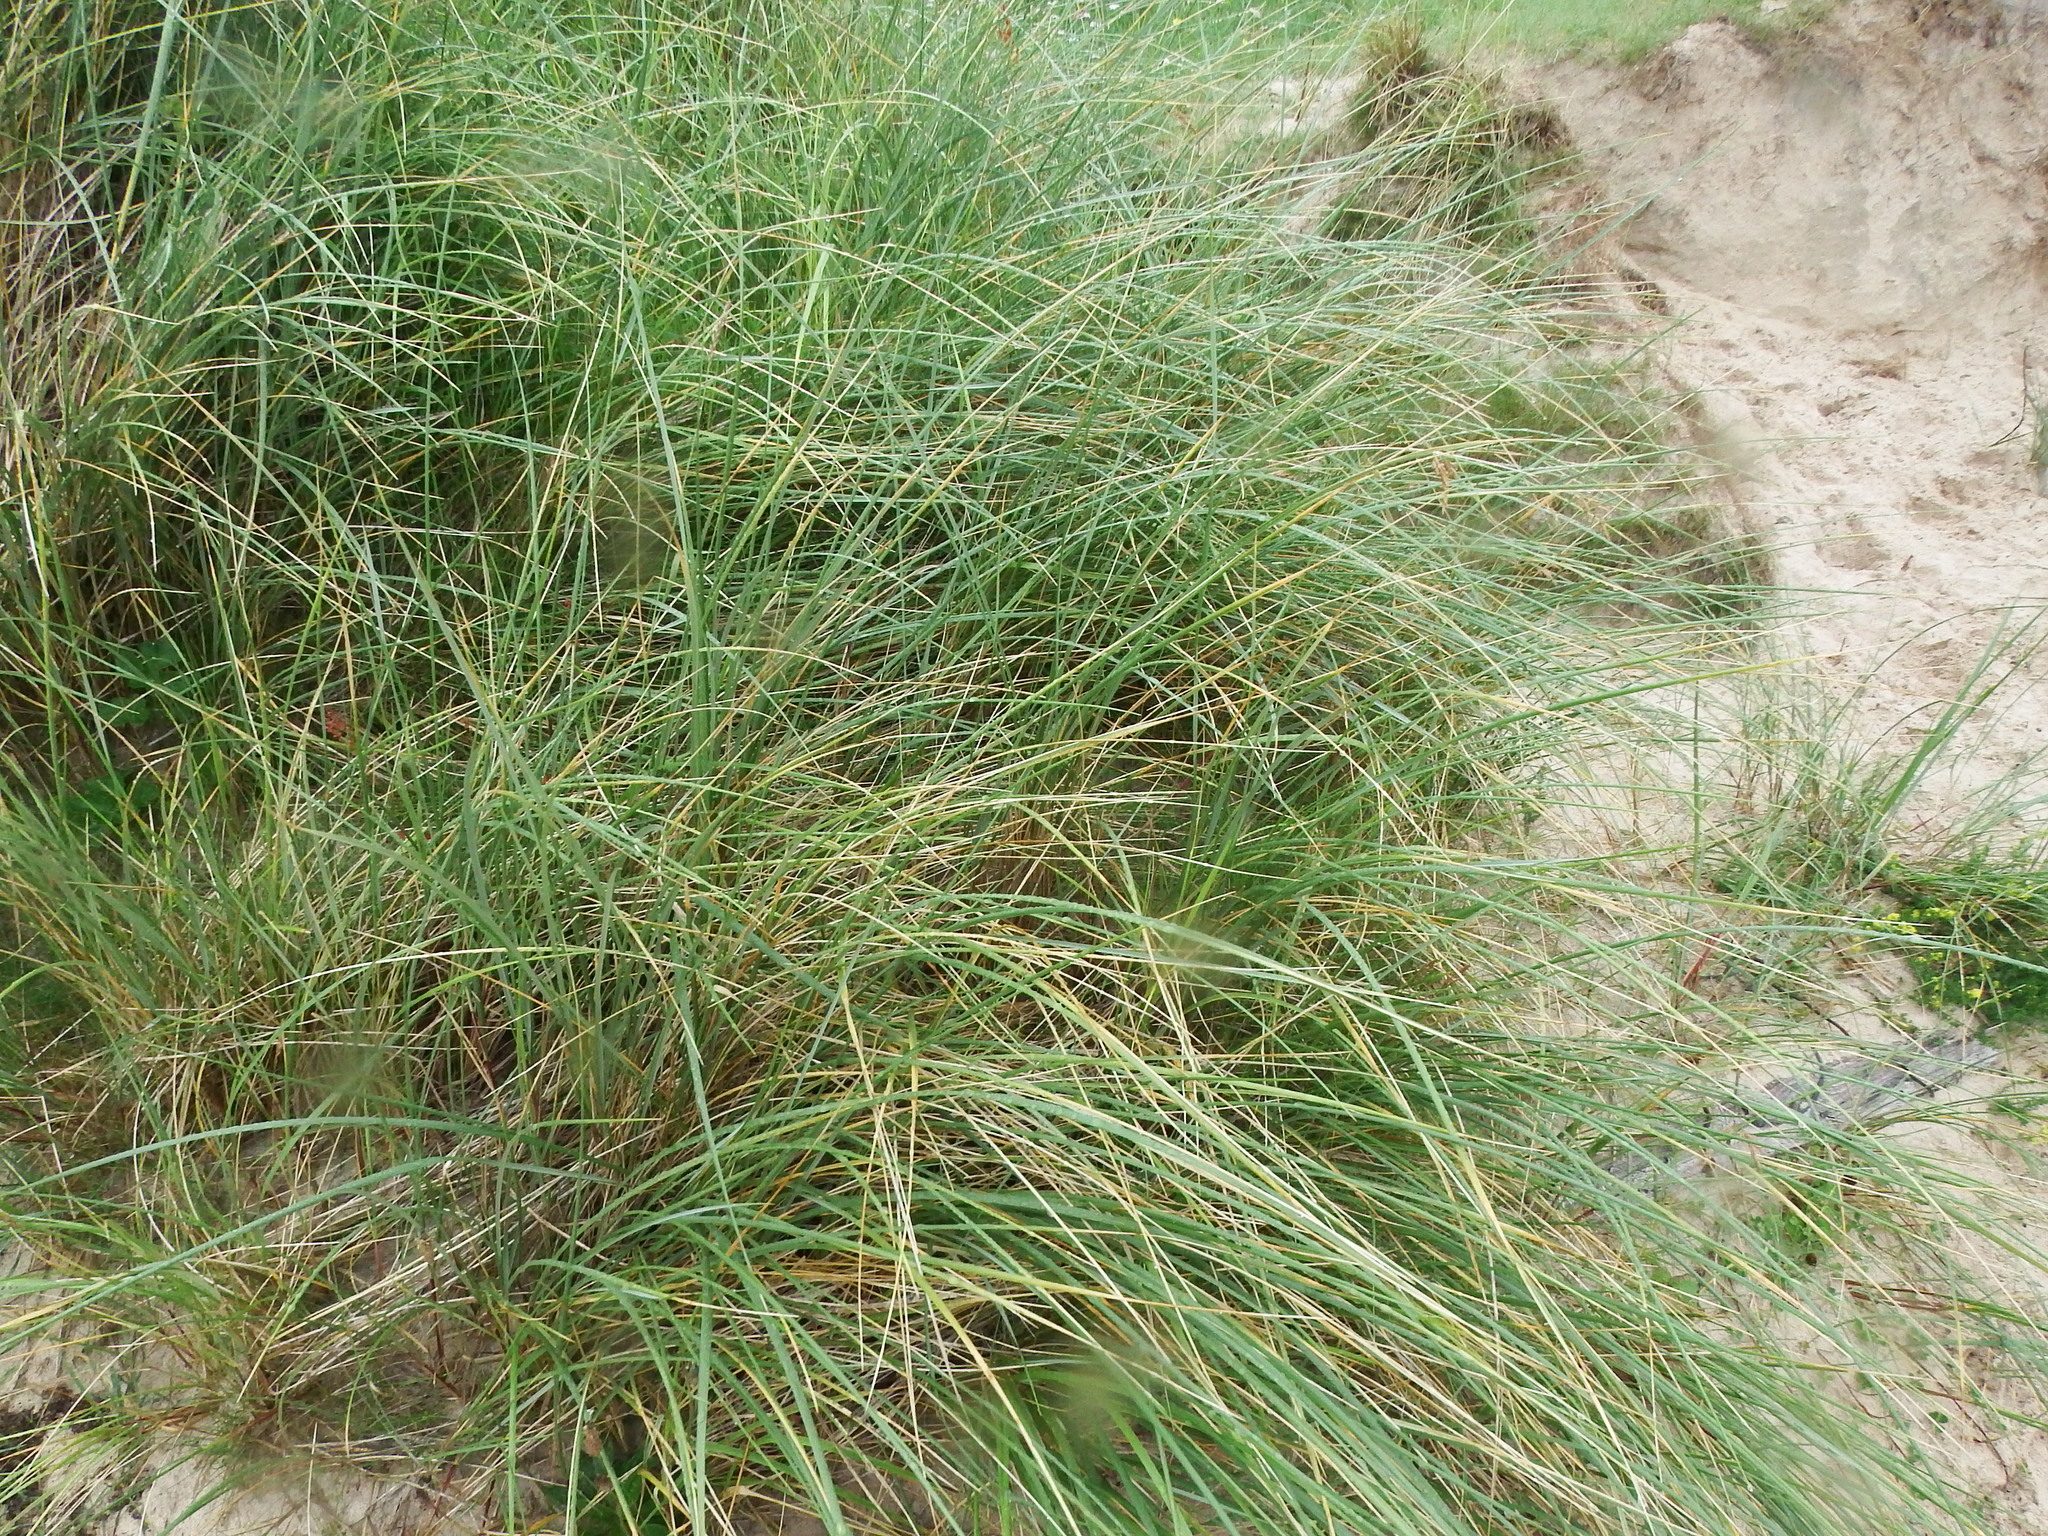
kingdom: Plantae
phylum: Tracheophyta
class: Liliopsida
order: Poales
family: Poaceae
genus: Calamagrostis
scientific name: Calamagrostis arenaria
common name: European beachgrass
